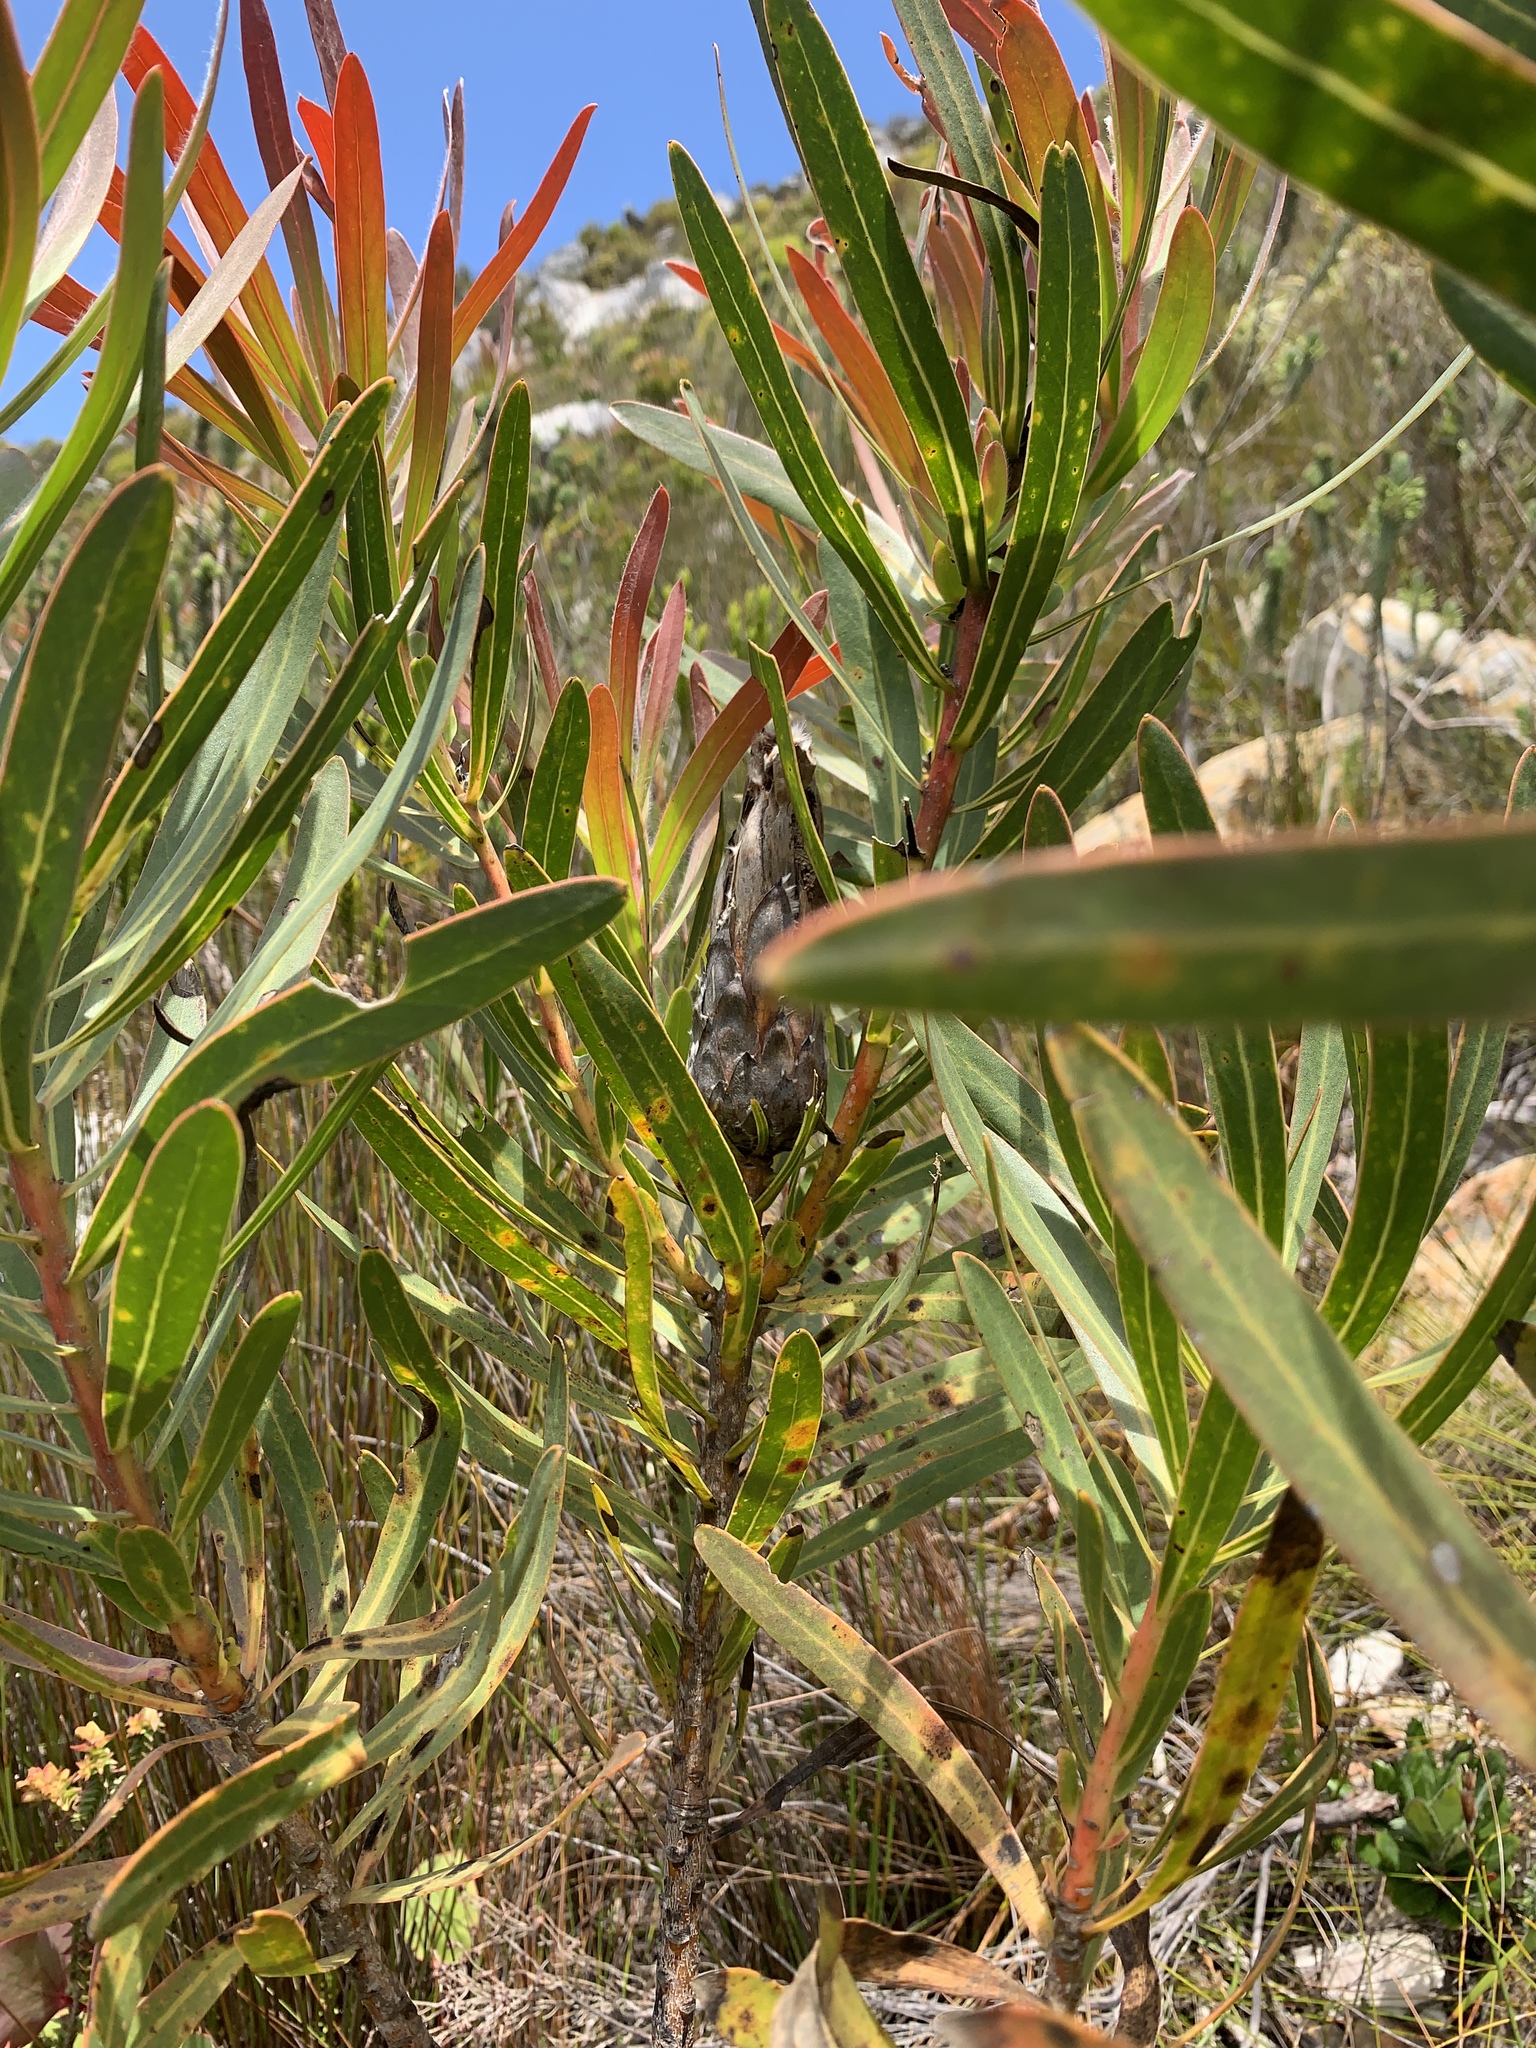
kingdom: Plantae
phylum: Tracheophyta
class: Magnoliopsida
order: Proteales
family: Proteaceae
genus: Protea
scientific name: Protea lepidocarpodendron
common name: Black-bearded protea
